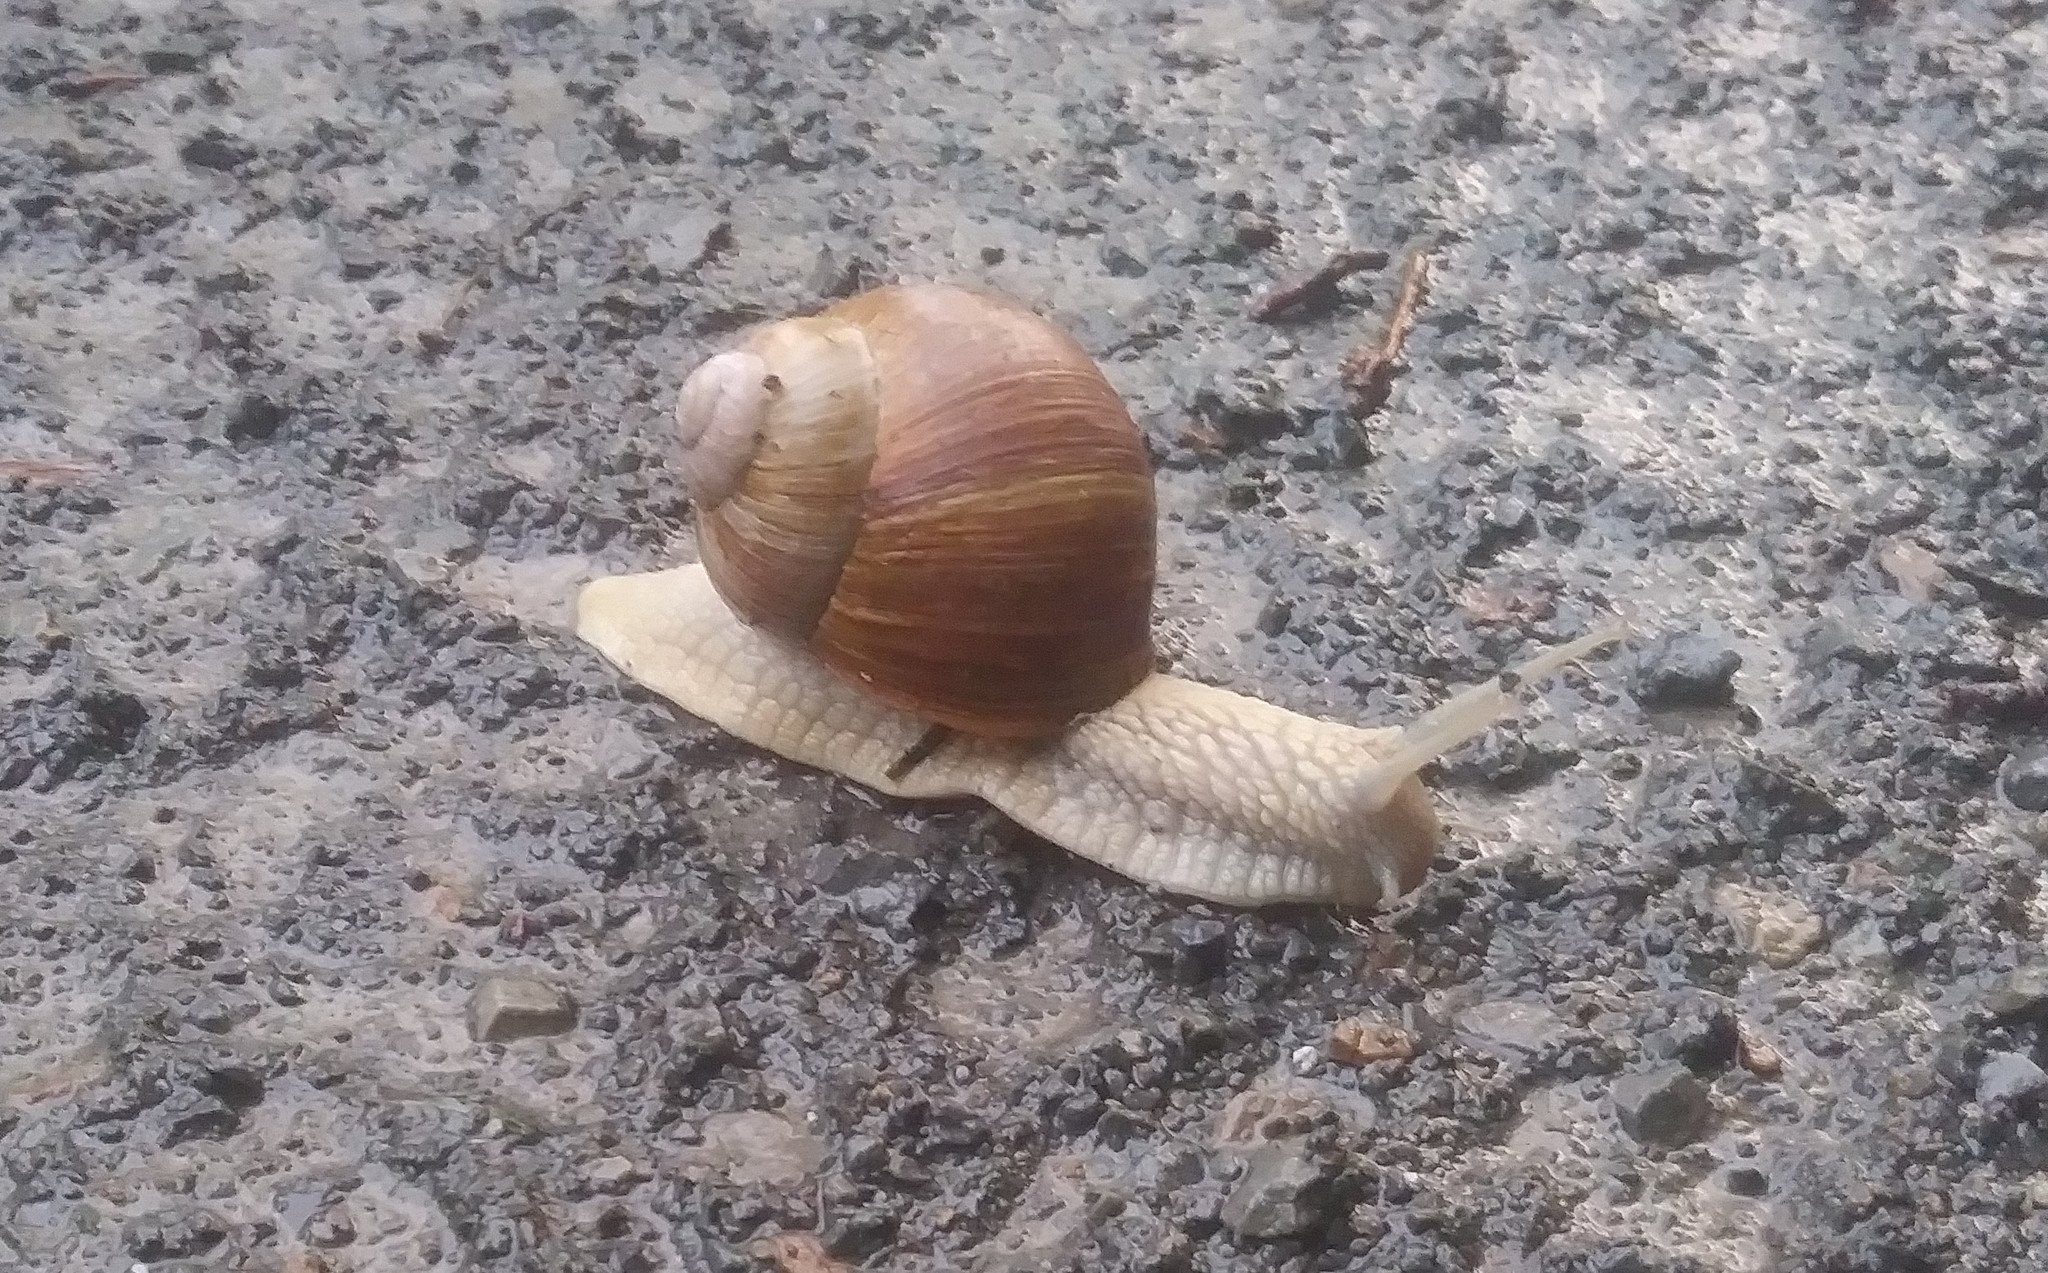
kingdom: Animalia
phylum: Mollusca
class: Gastropoda
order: Stylommatophora
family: Helicidae
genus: Helix
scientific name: Helix pomatia
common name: Roman snail
